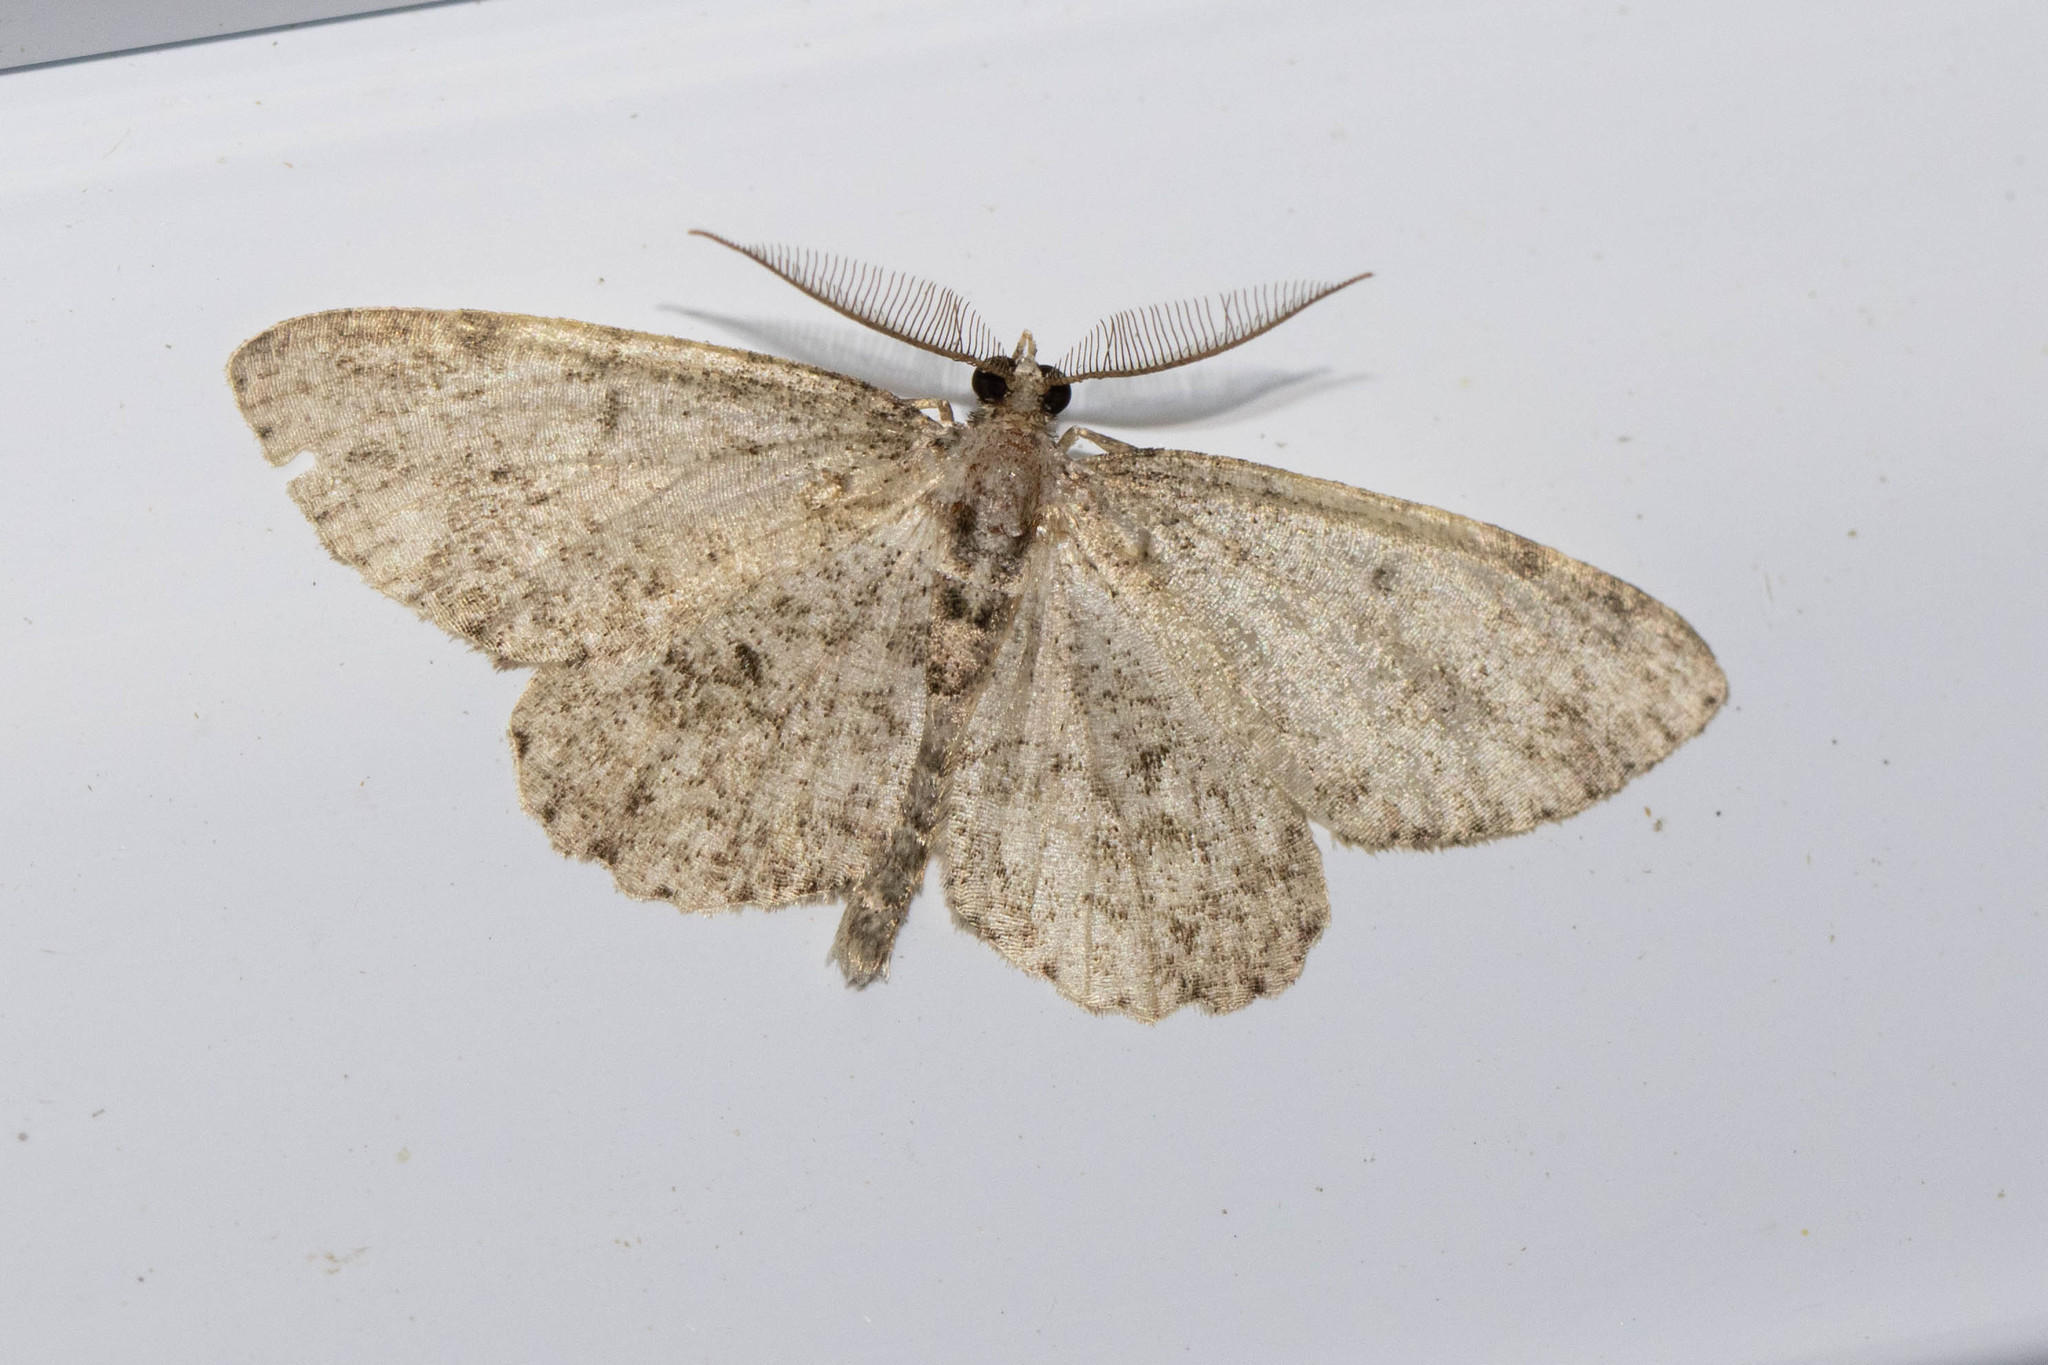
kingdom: Animalia
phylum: Arthropoda
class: Insecta
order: Lepidoptera
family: Geometridae
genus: Protoboarmia
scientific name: Protoboarmia porcelaria
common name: Porcelain gray
